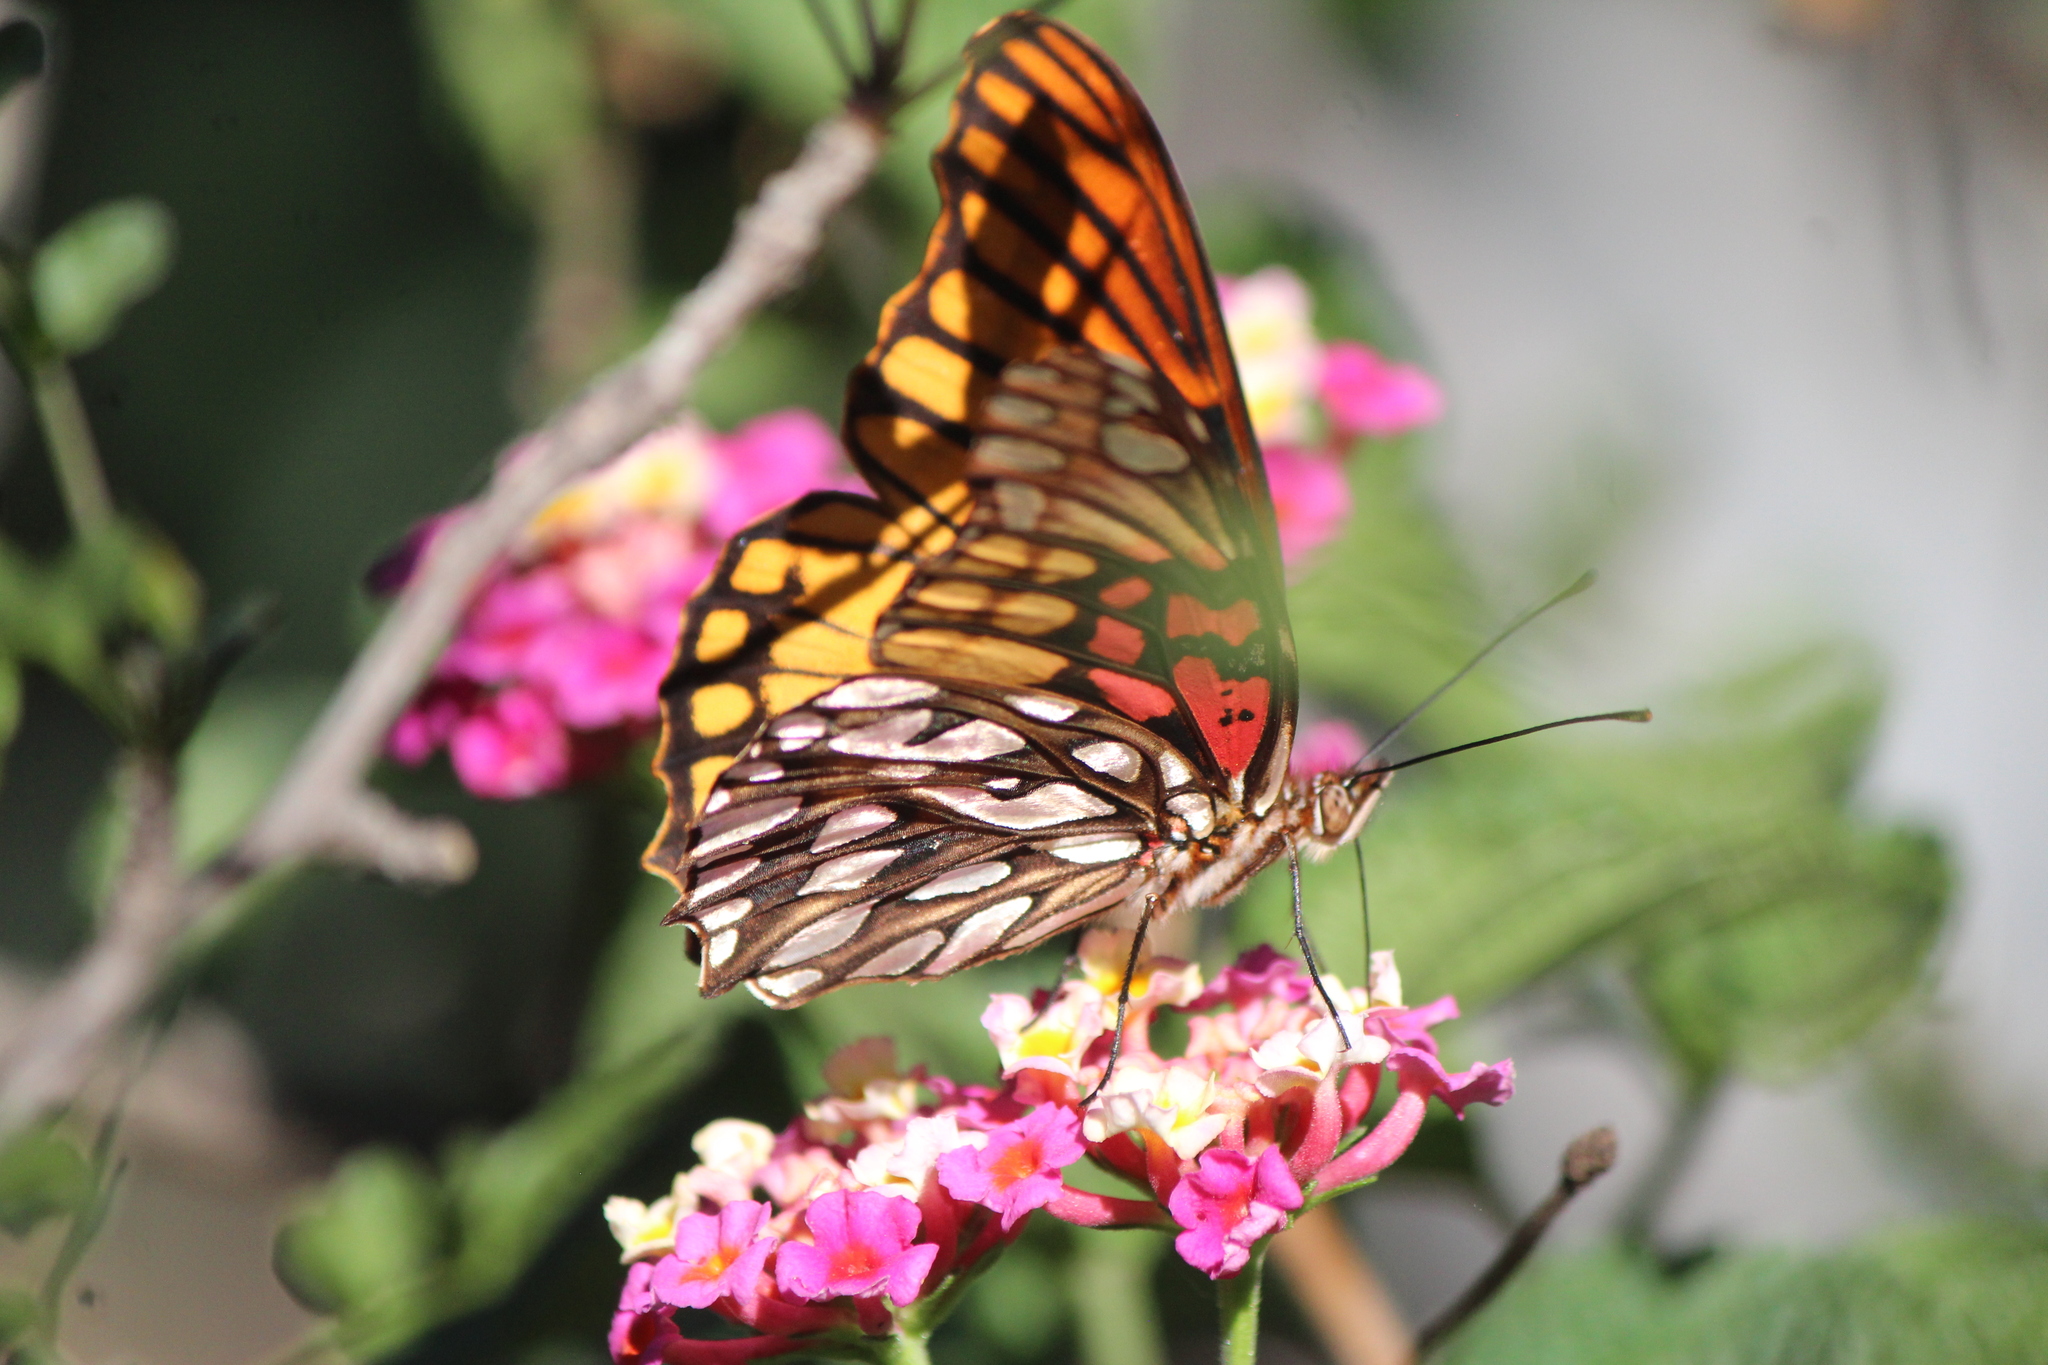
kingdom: Animalia
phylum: Arthropoda
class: Insecta
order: Lepidoptera
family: Nymphalidae
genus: Dione
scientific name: Dione moneta
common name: Mexican silverspot
